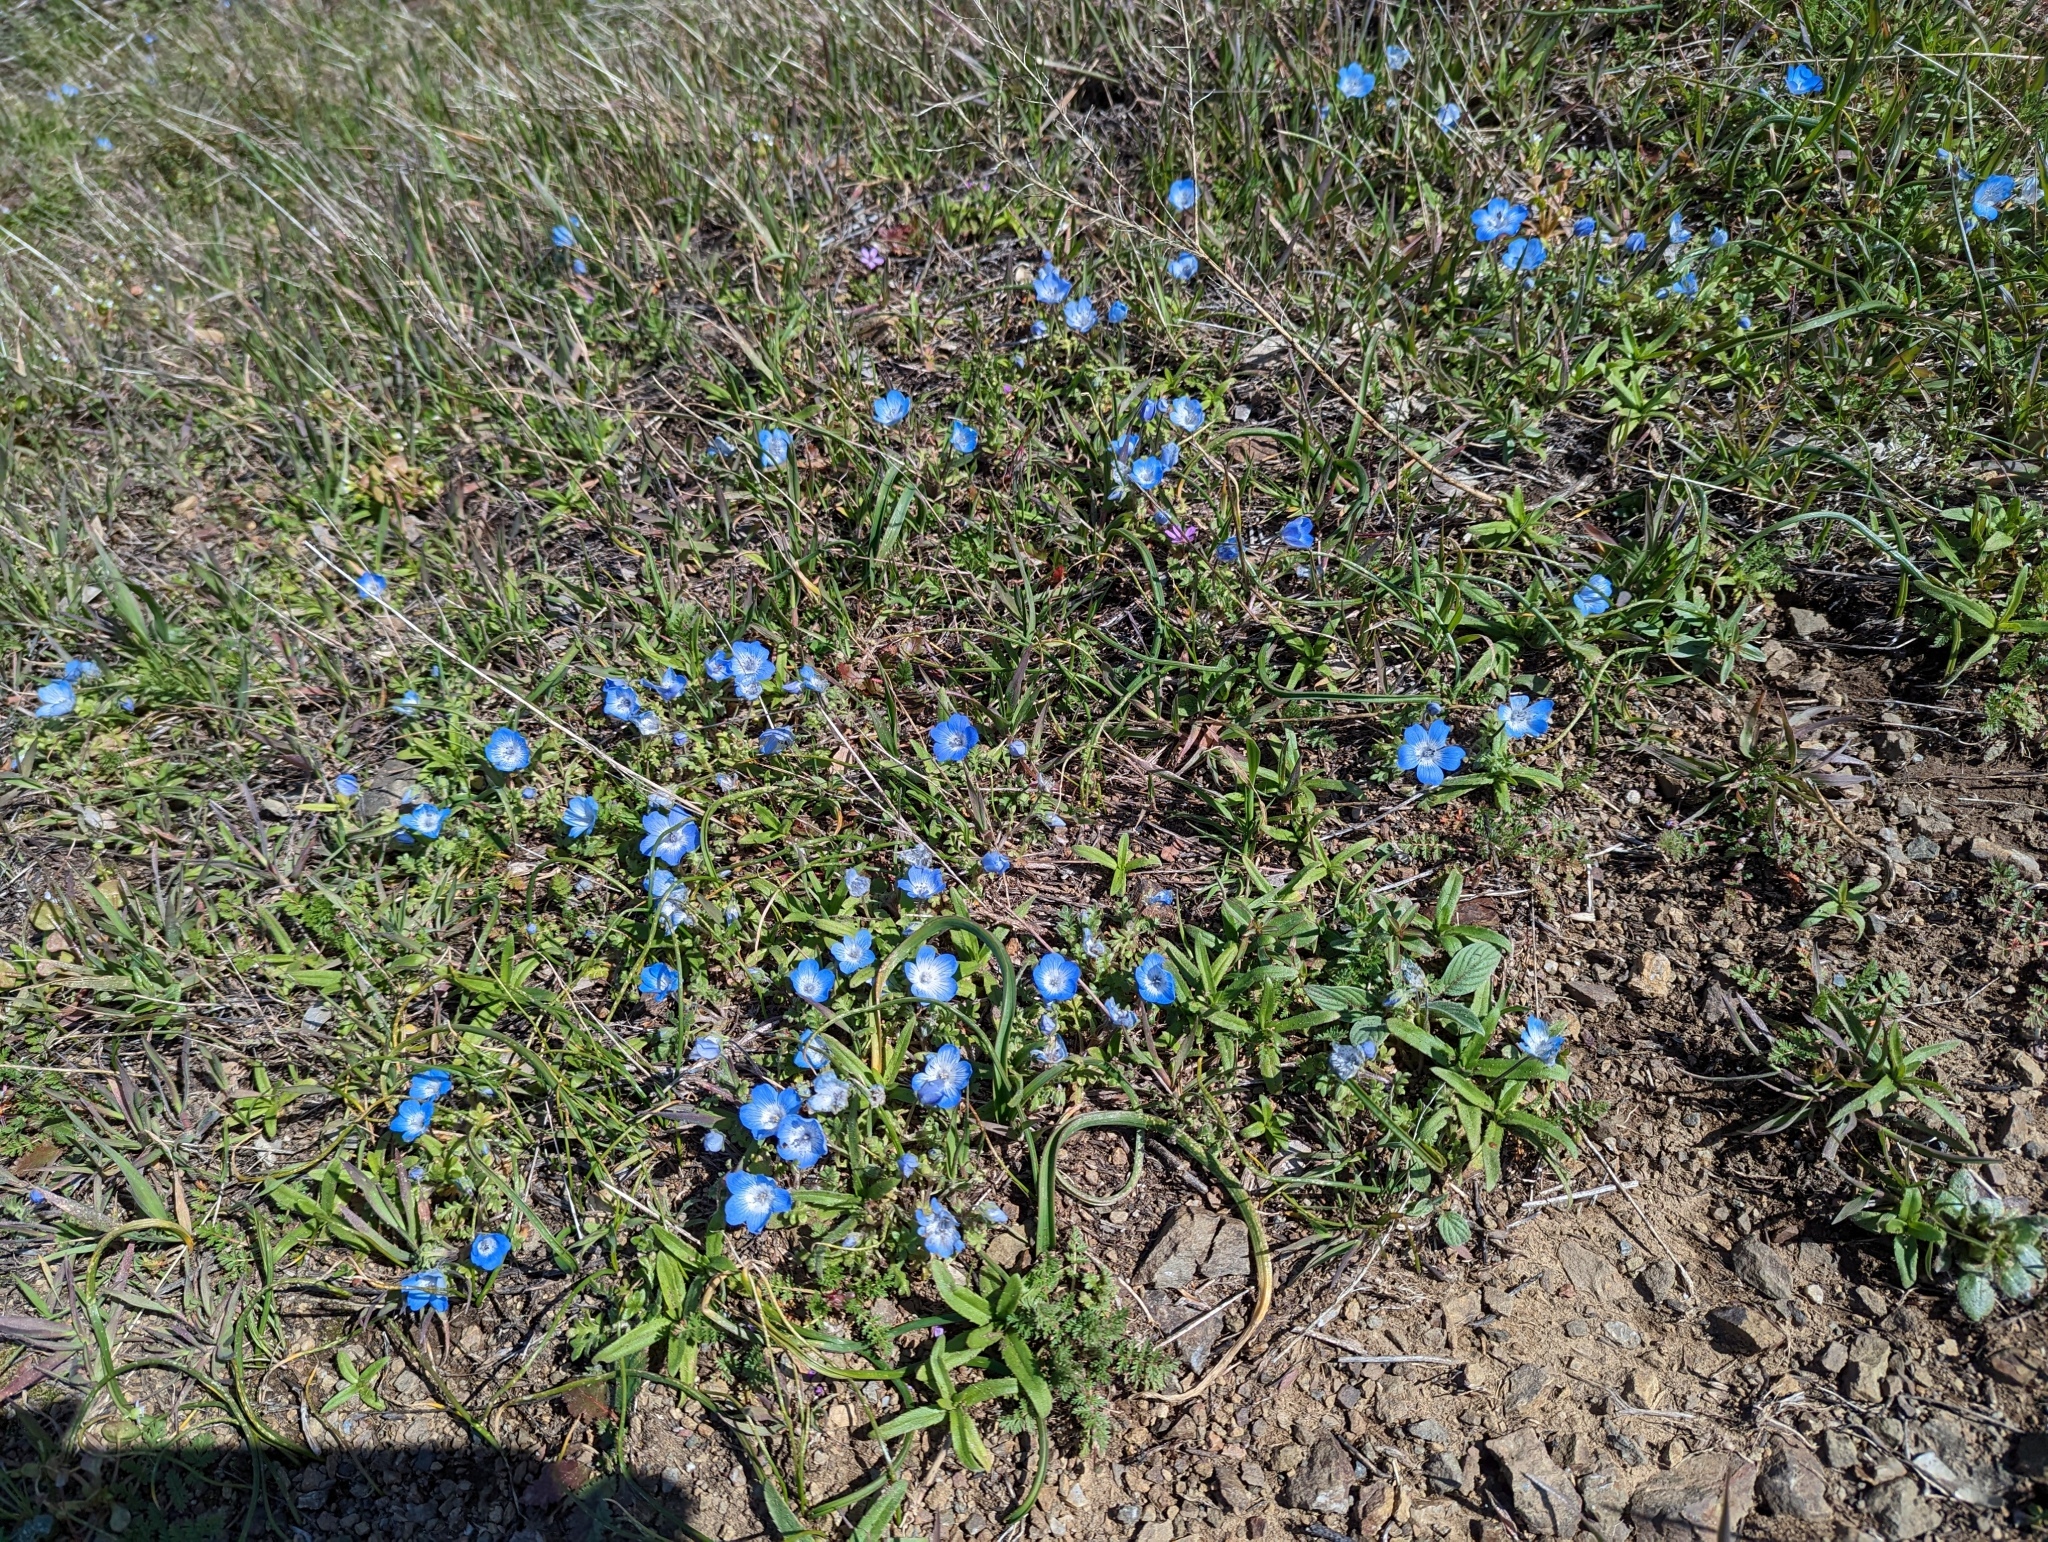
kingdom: Plantae
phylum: Tracheophyta
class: Magnoliopsida
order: Boraginales
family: Hydrophyllaceae
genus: Nemophila
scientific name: Nemophila menziesii
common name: Baby's-blue-eyes
